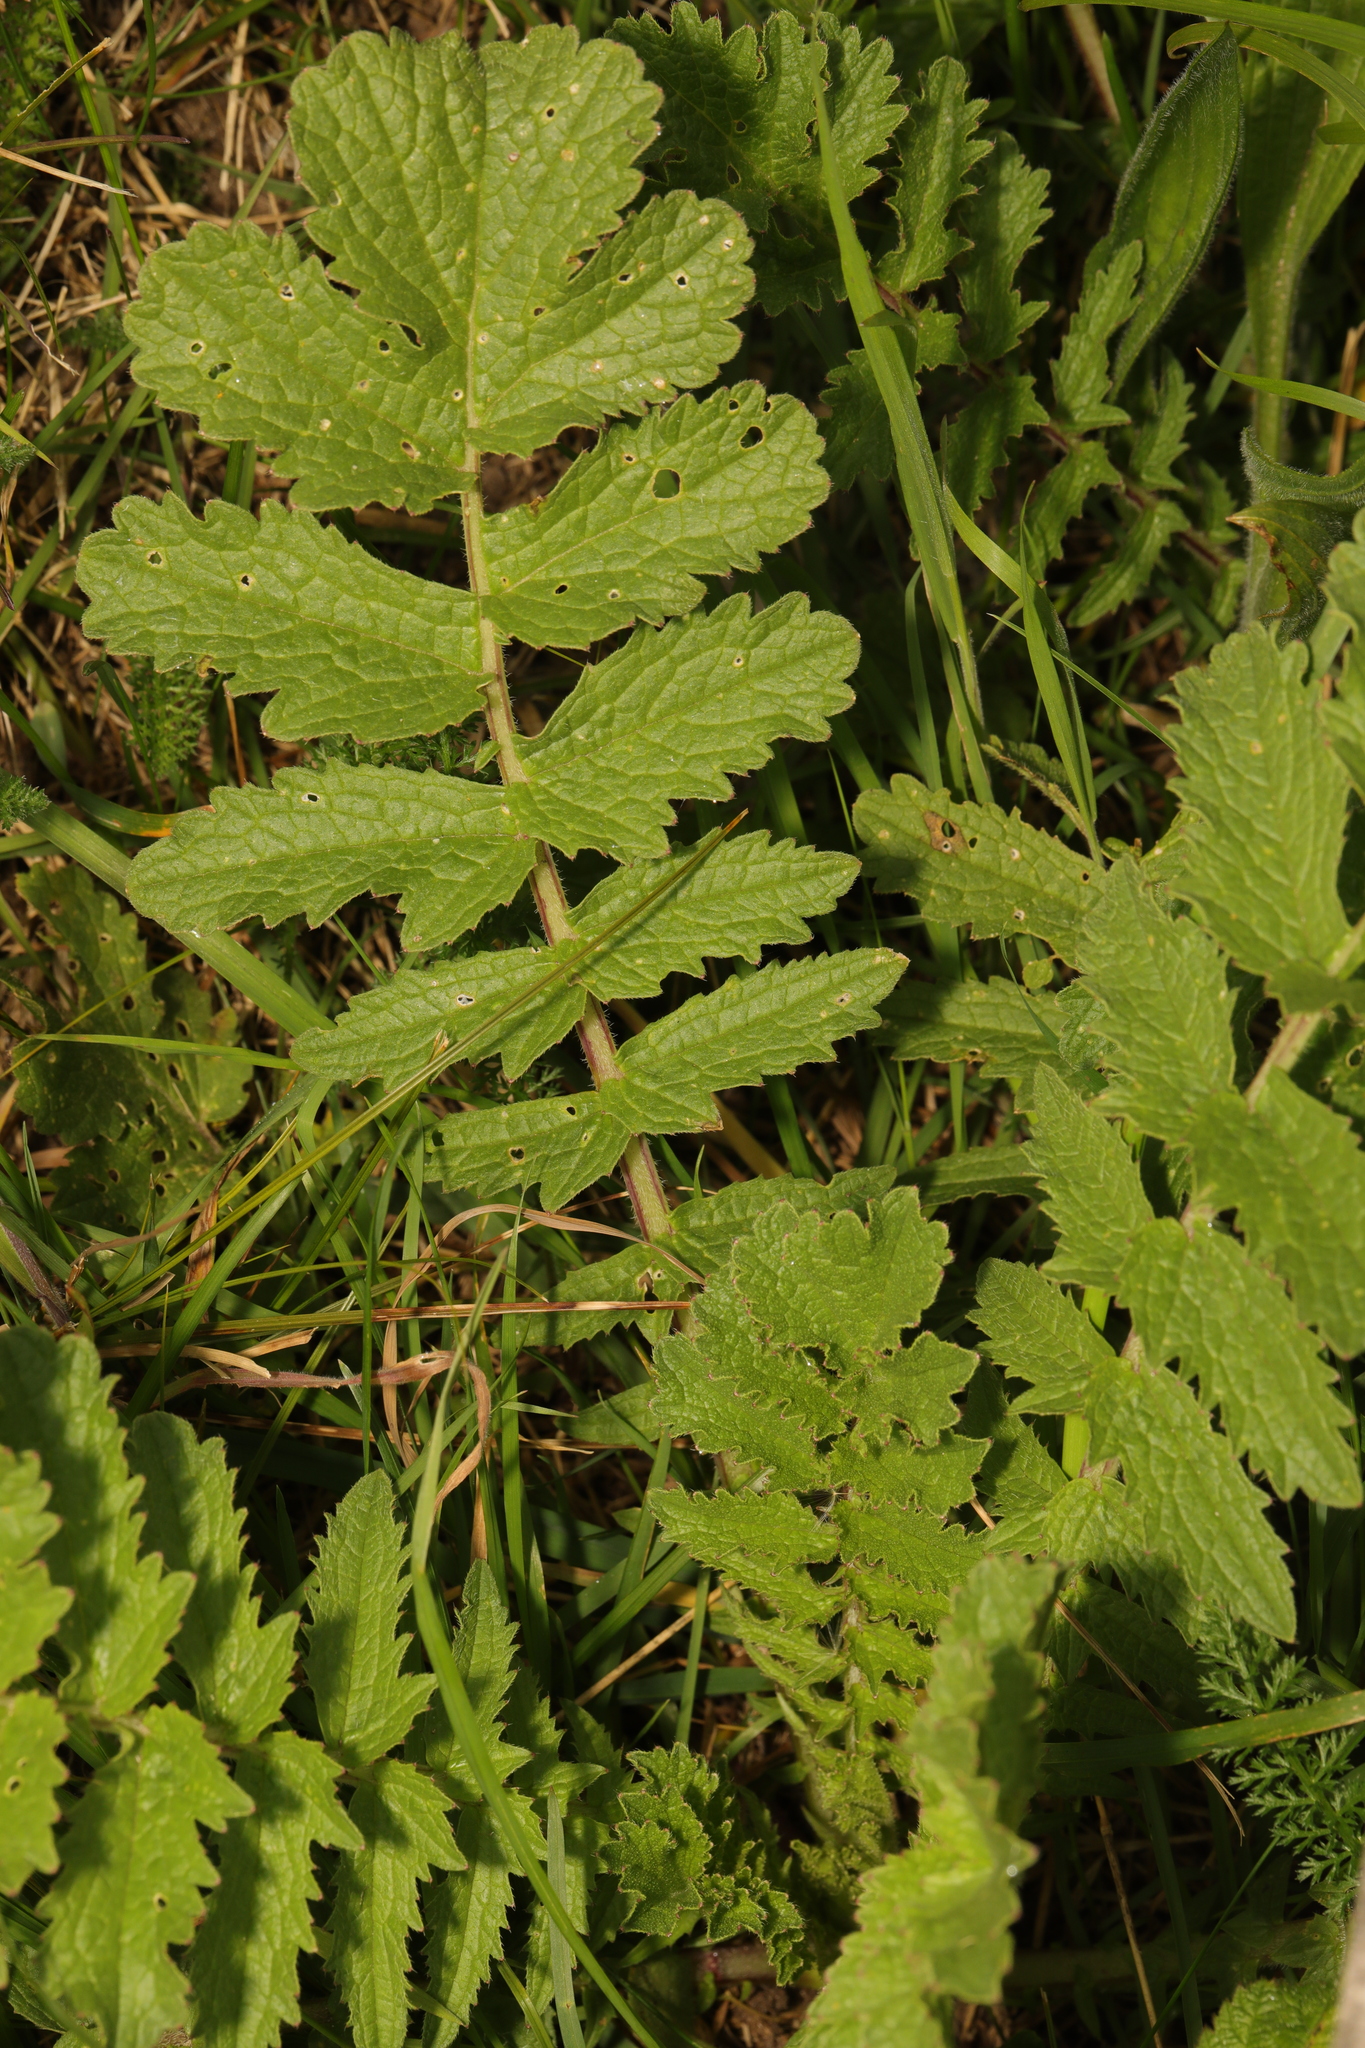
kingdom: Plantae
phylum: Tracheophyta
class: Magnoliopsida
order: Brassicales
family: Brassicaceae
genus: Raphanus
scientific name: Raphanus raphanistrum
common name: Wild radish
